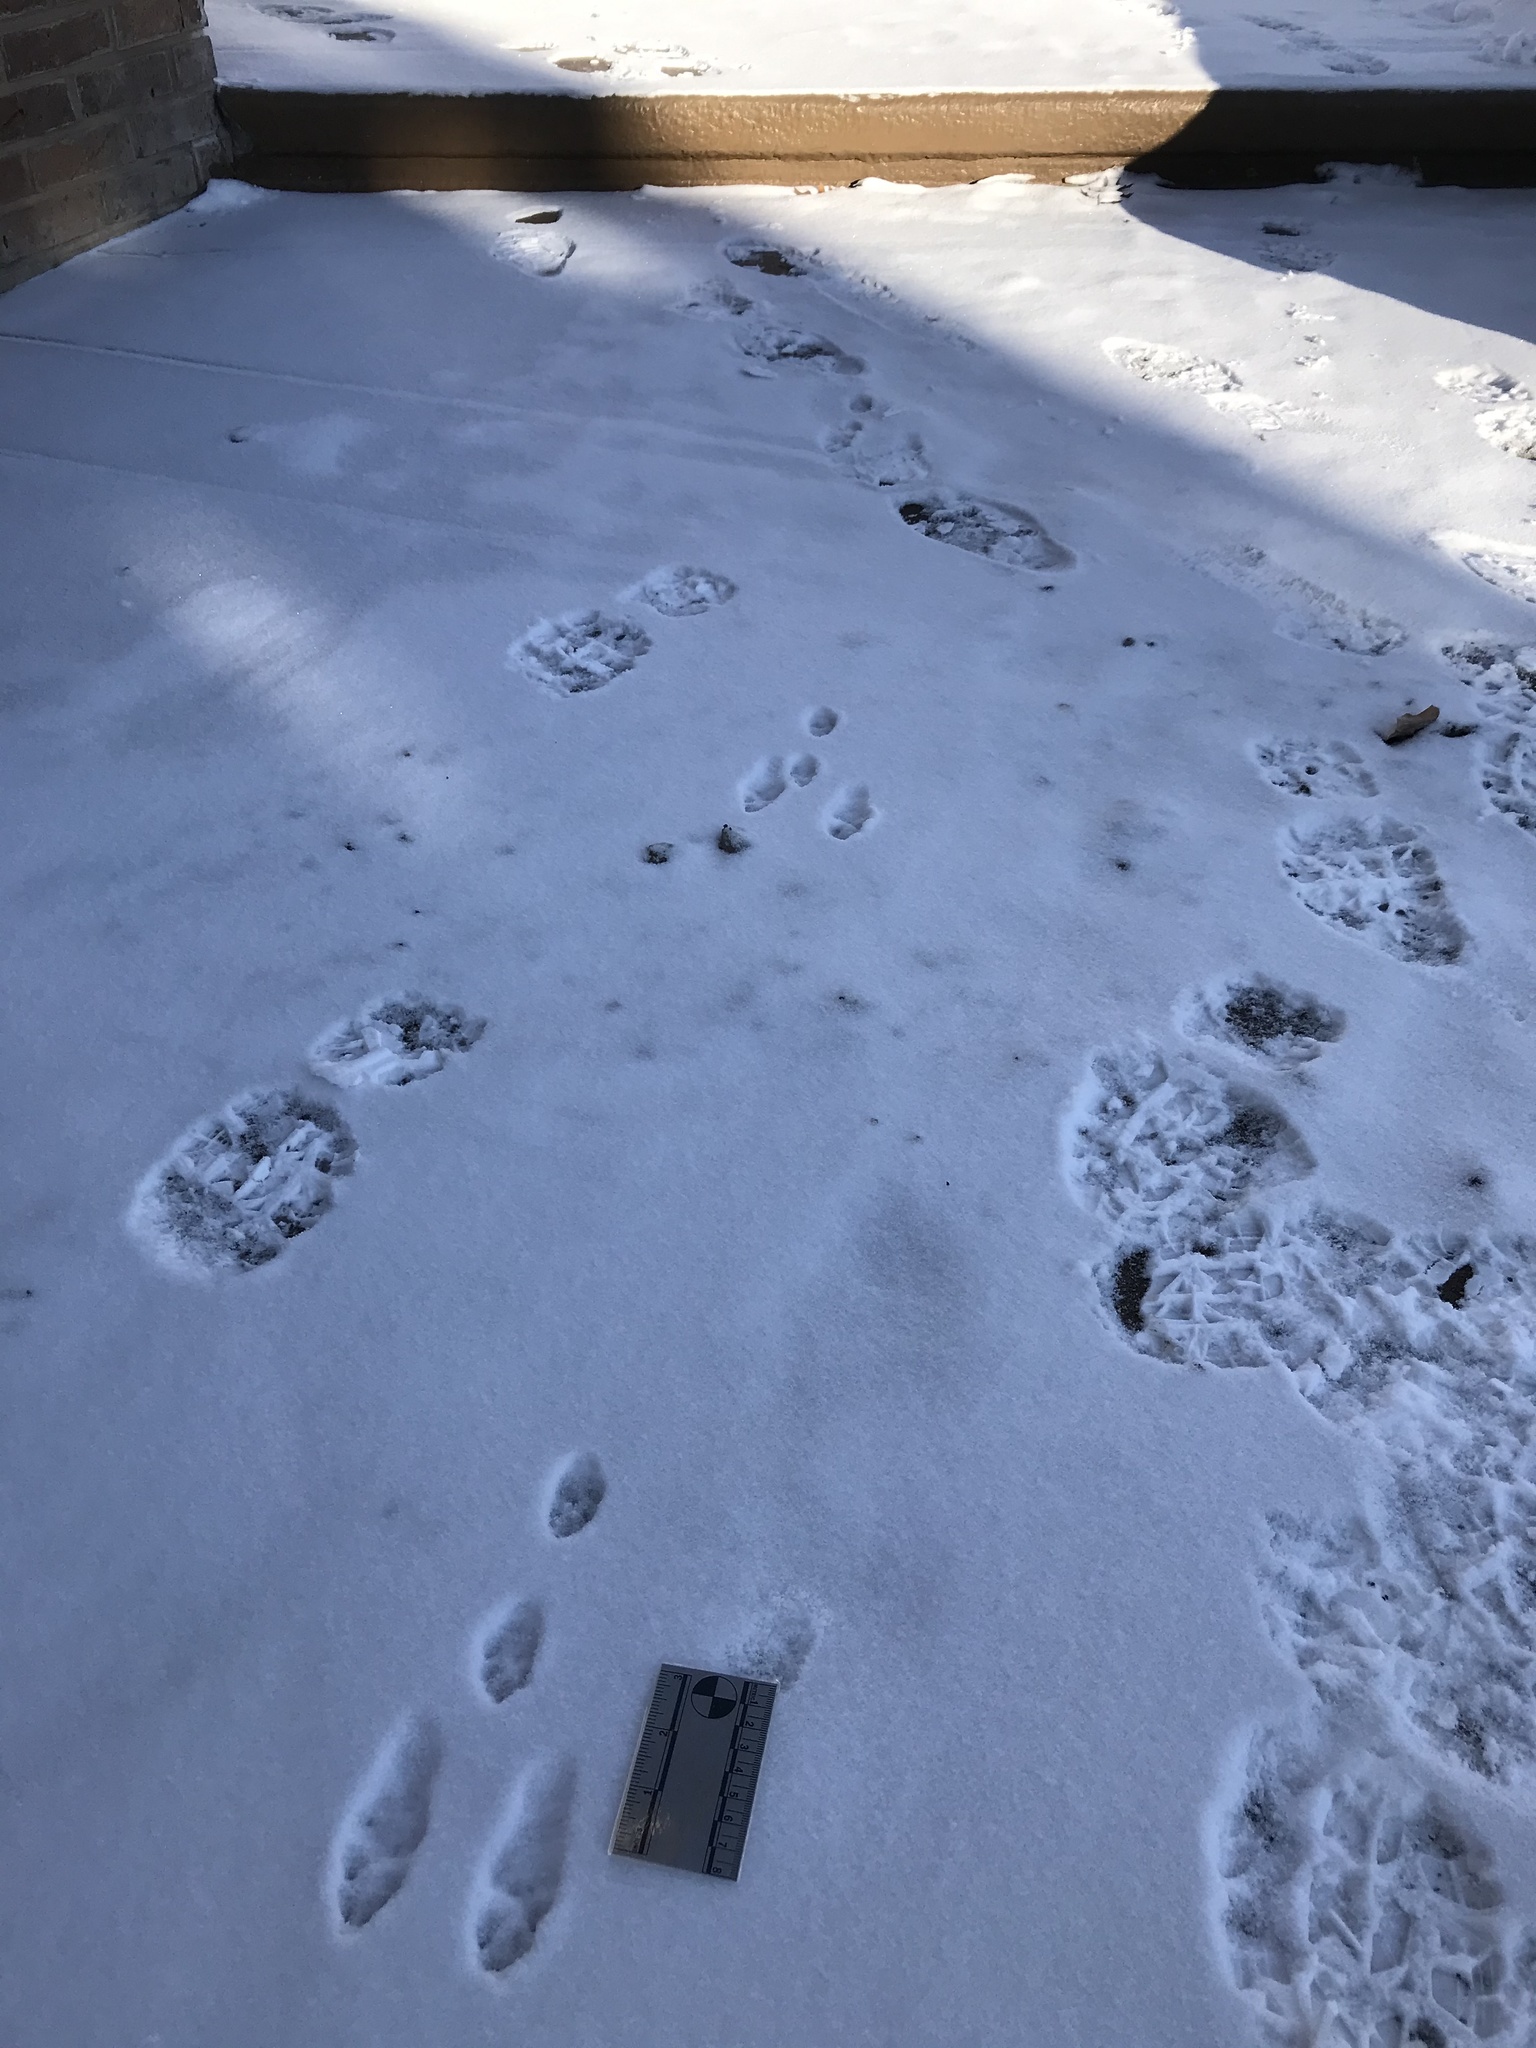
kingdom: Animalia
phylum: Chordata
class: Mammalia
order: Lagomorpha
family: Leporidae
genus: Sylvilagus
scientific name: Sylvilagus floridanus
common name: Eastern cottontail
